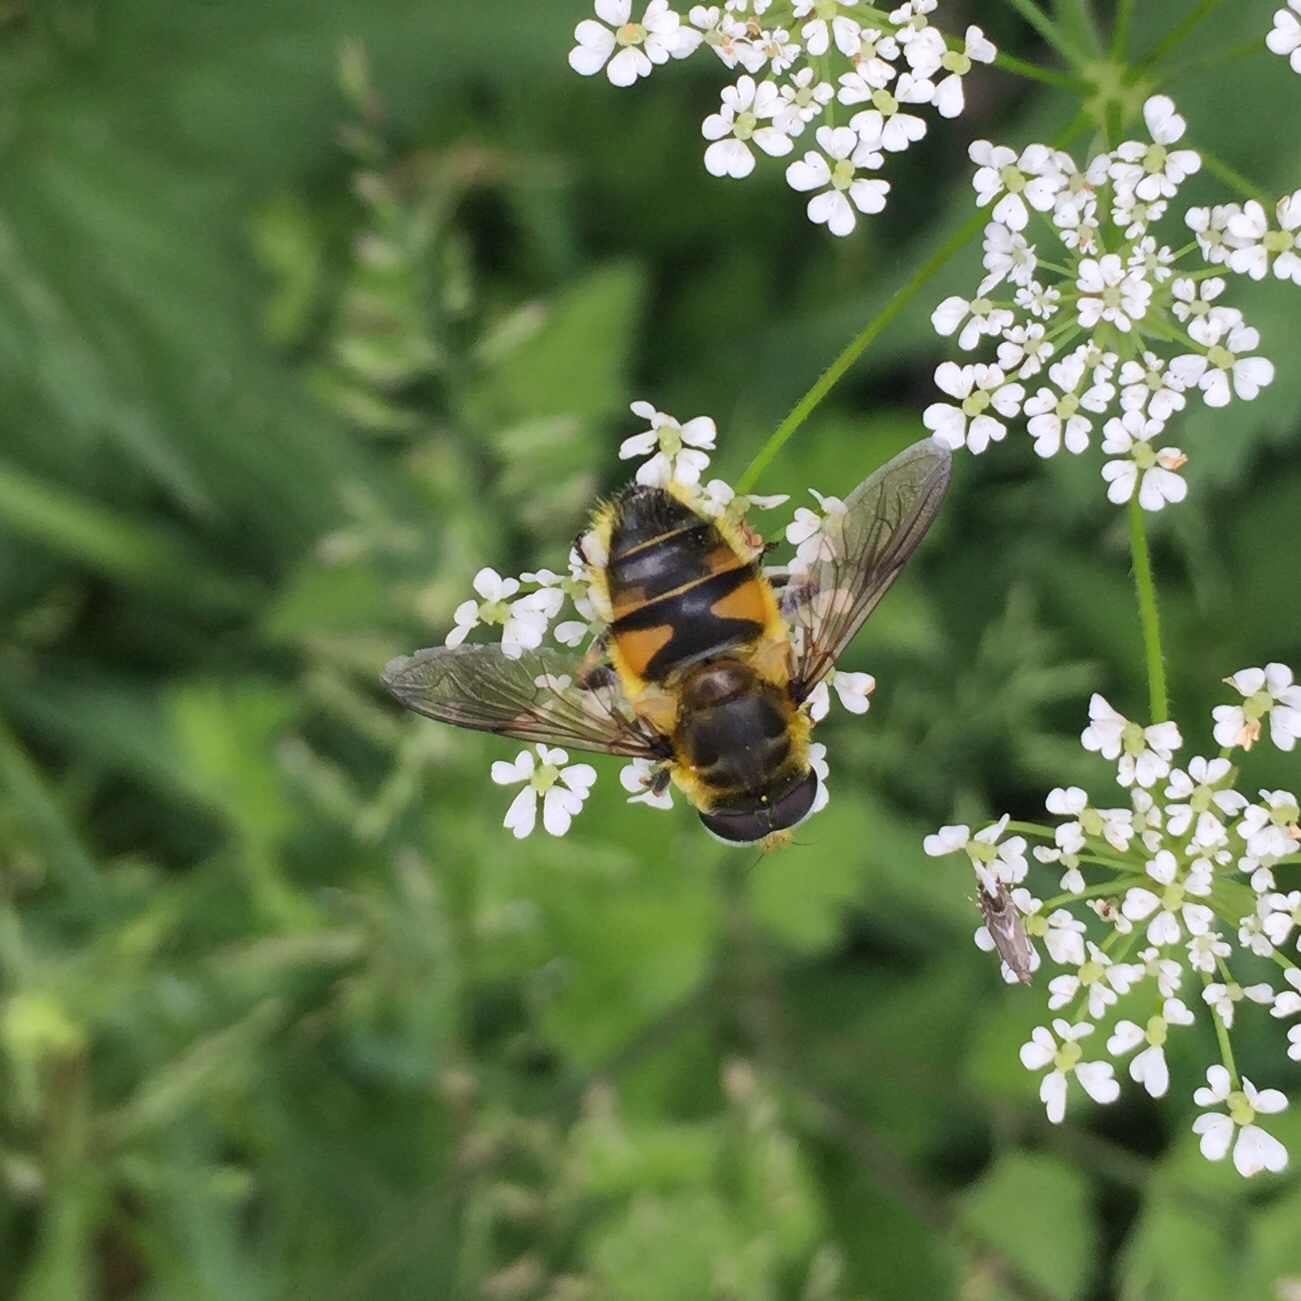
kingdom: Animalia
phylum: Arthropoda
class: Insecta
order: Diptera
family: Syrphidae
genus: Myathropa
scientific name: Myathropa florea
